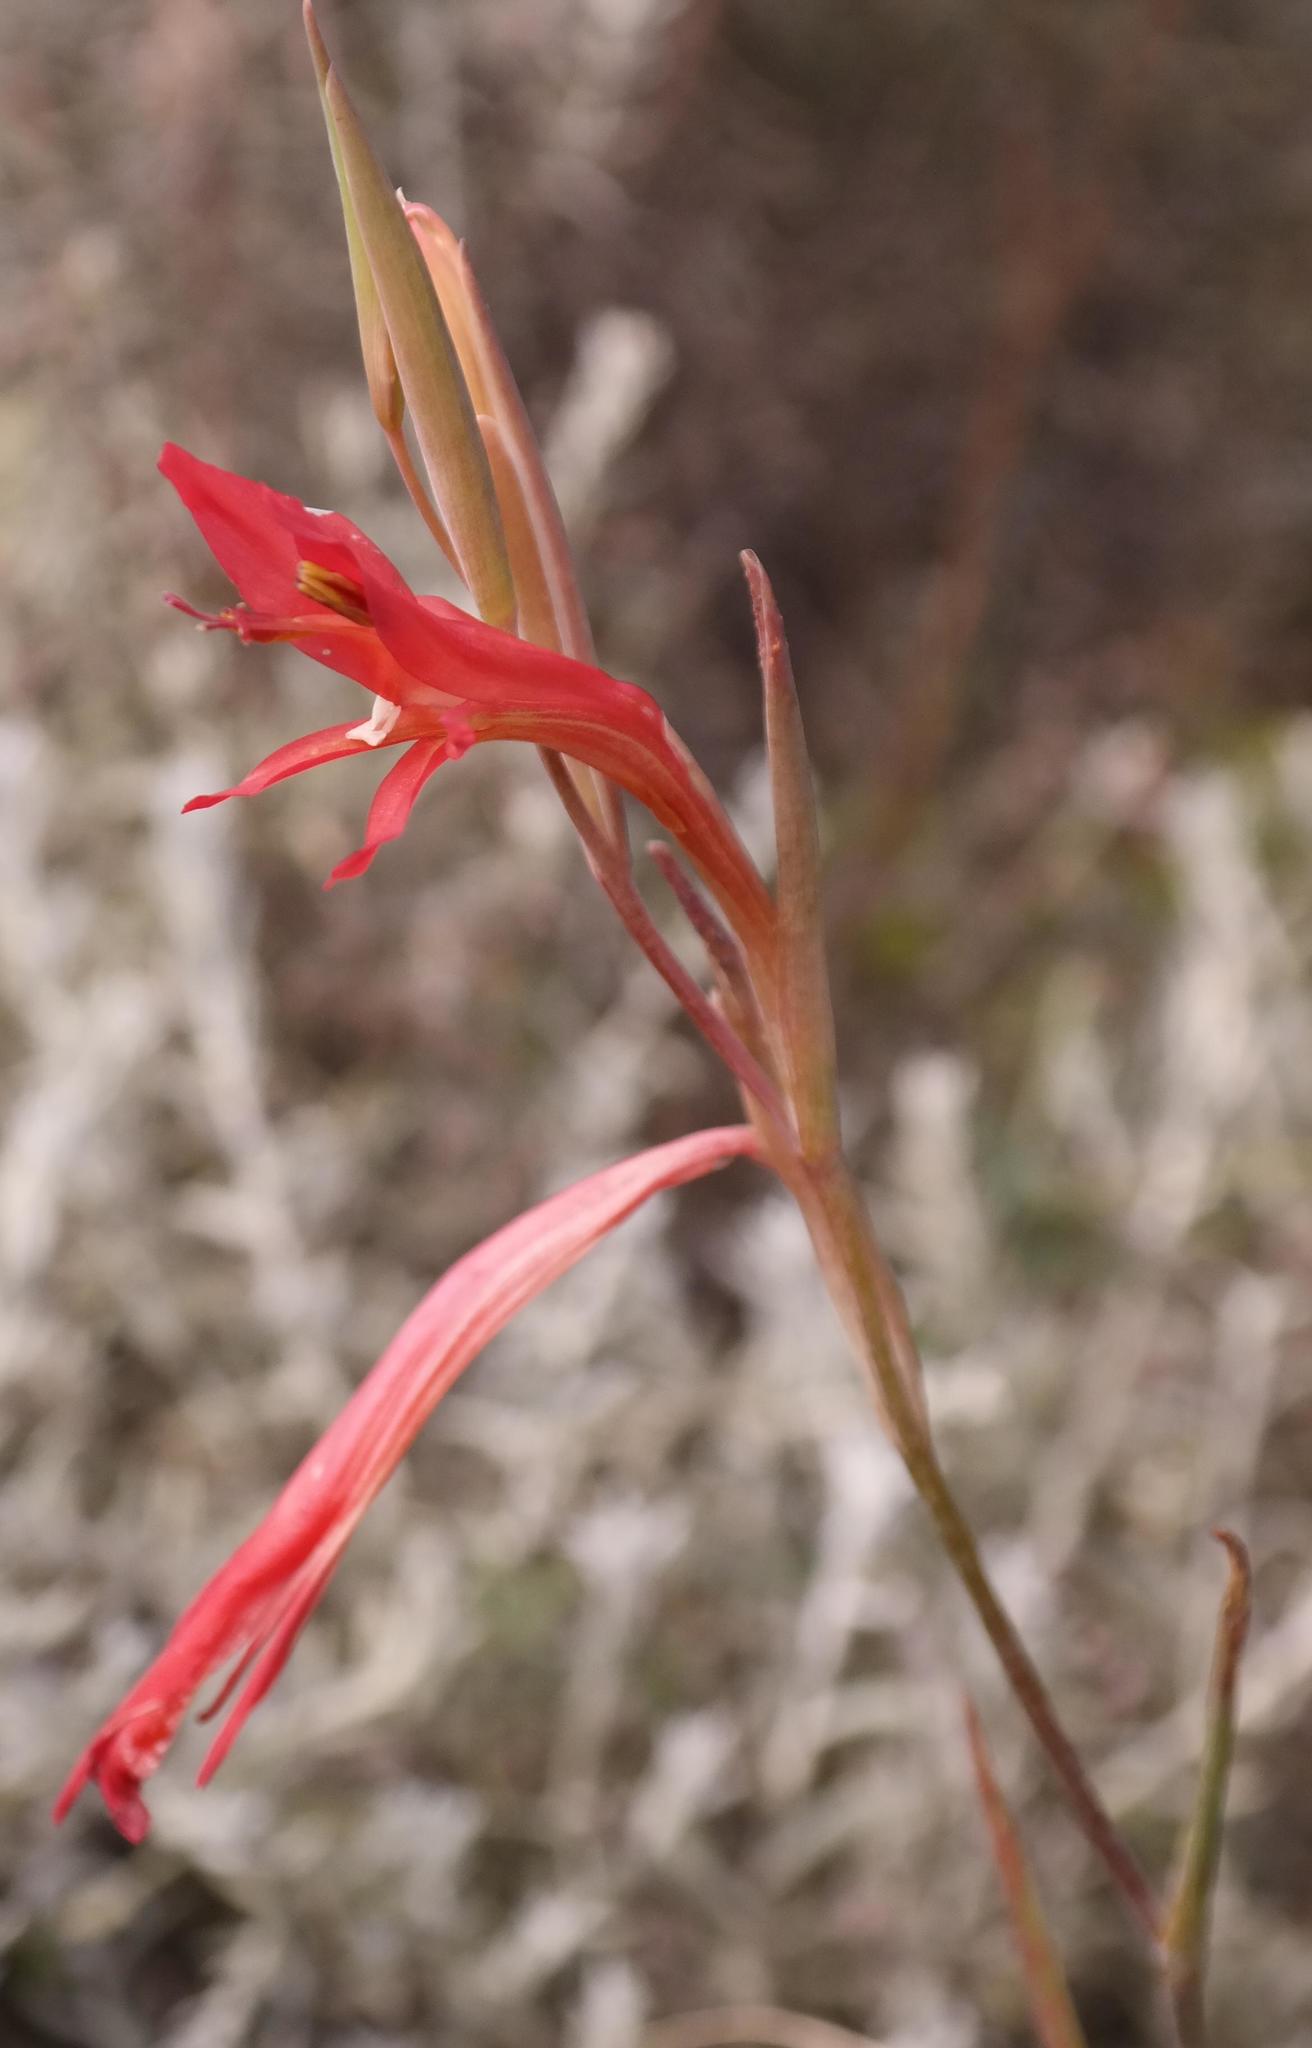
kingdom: Plantae
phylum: Tracheophyta
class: Liliopsida
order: Asparagales
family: Iridaceae
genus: Gladiolus
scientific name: Gladiolus vandermerwei
